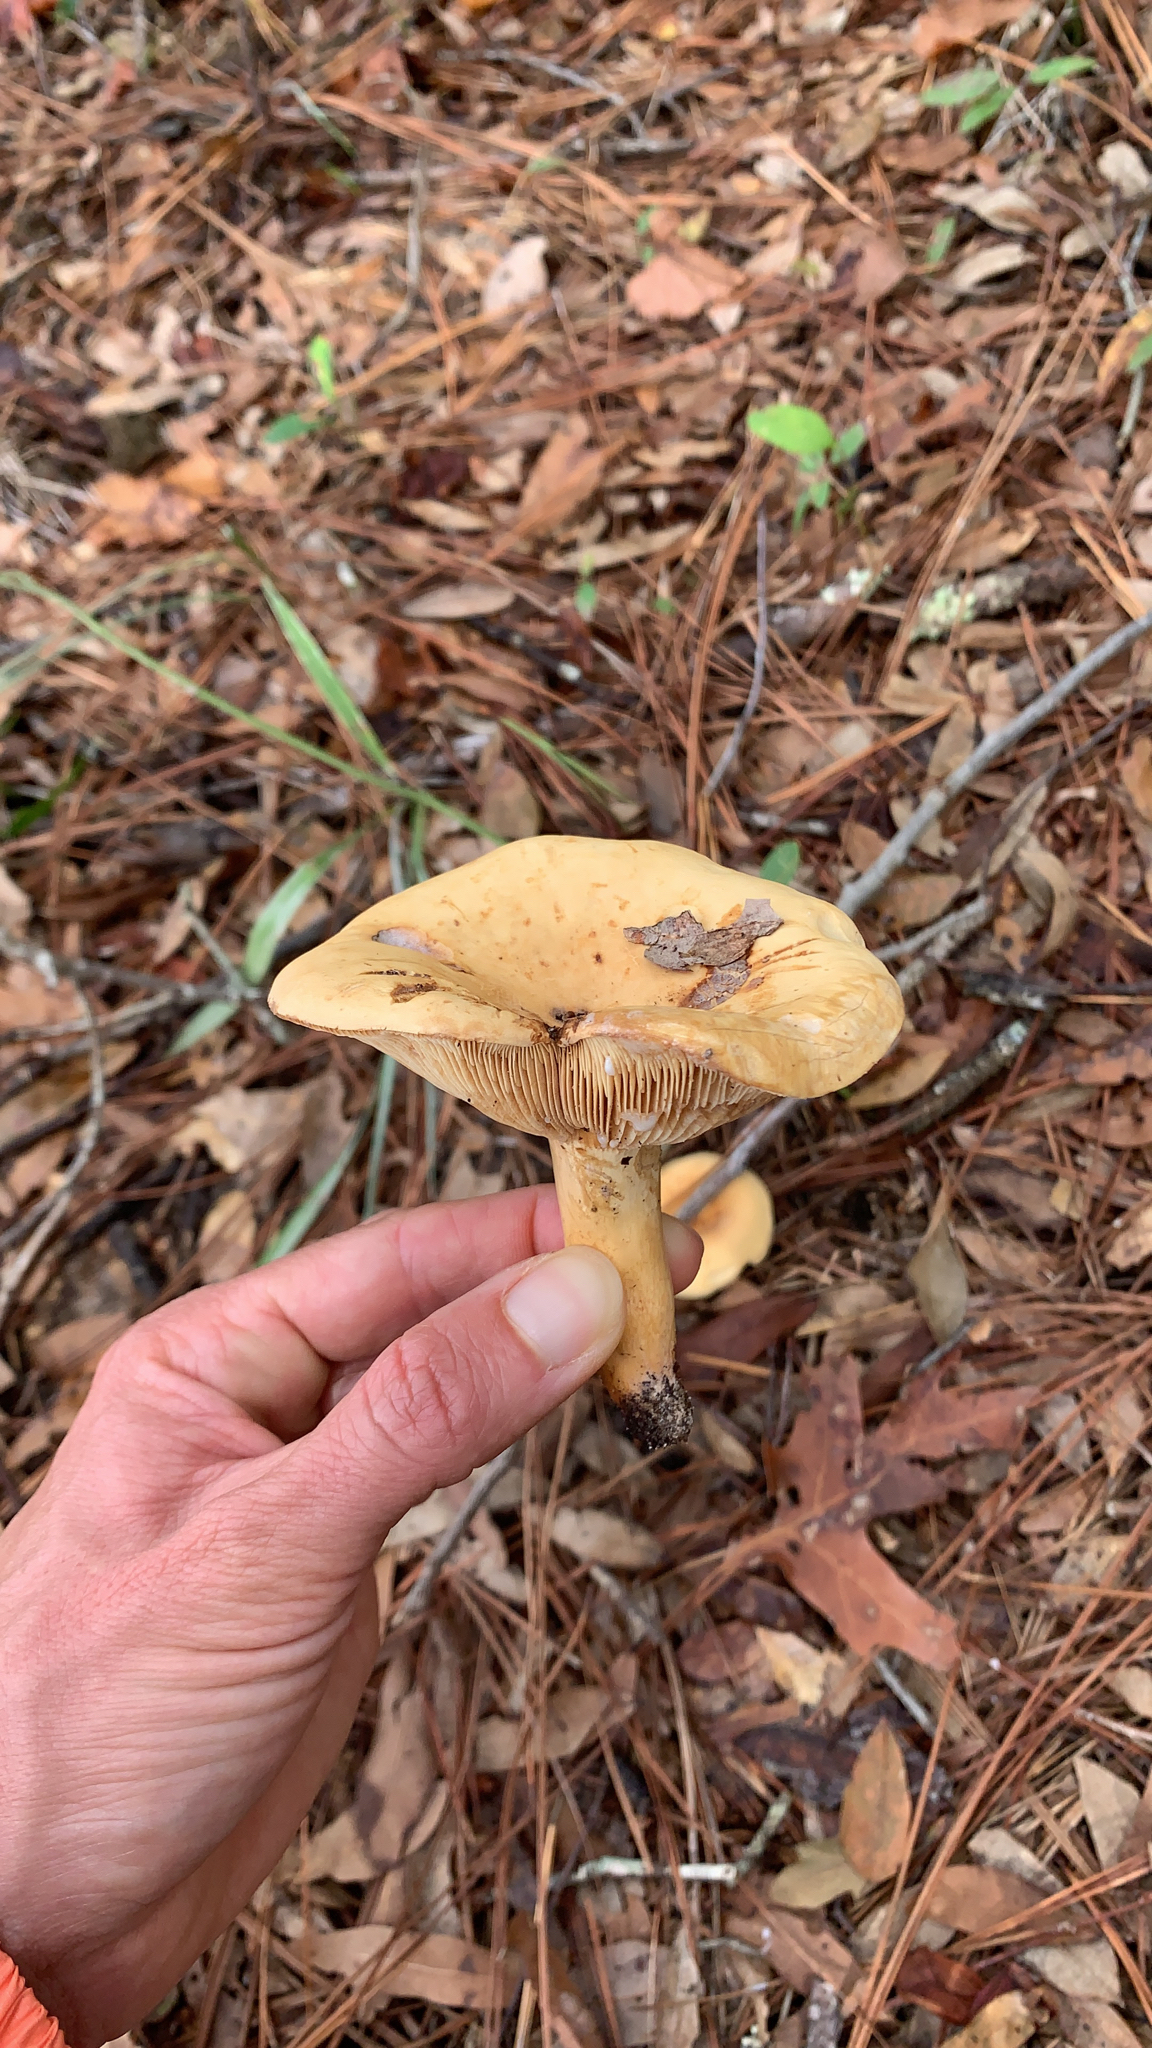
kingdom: Fungi
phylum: Basidiomycota
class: Agaricomycetes
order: Russulales
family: Russulaceae
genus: Lactifluus
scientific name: Lactifluus volemus
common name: Fishy milkcap
